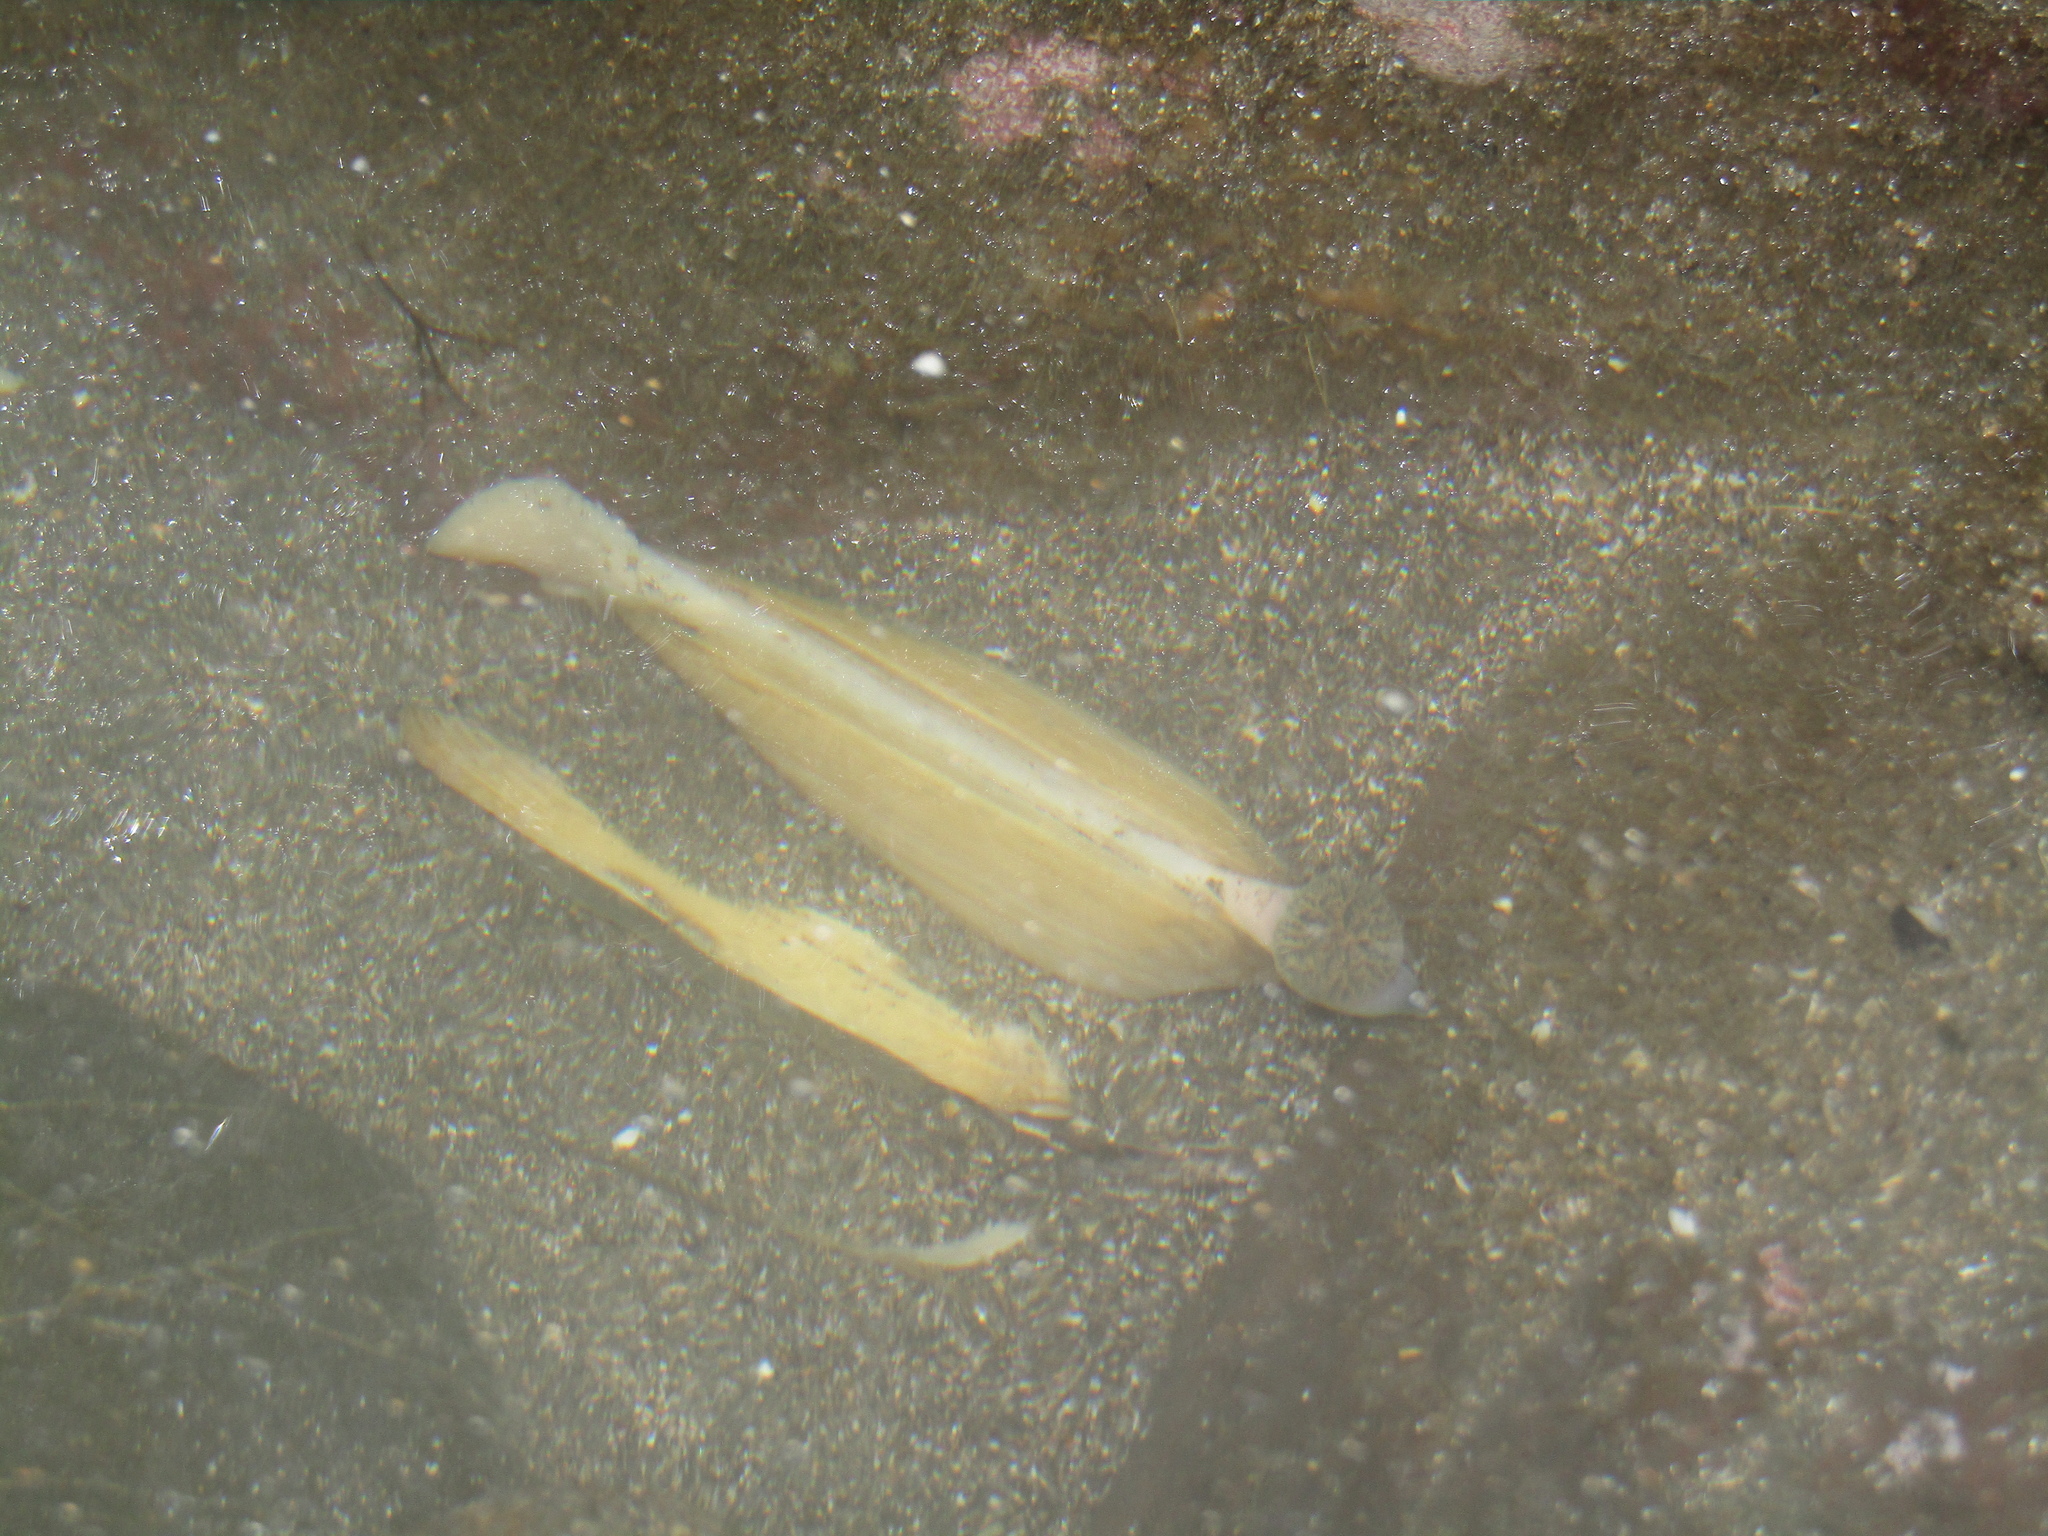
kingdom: Animalia
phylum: Mollusca
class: Bivalvia
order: Venerida
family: Mesodesmatidae
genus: Paphies
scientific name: Paphies donacina
